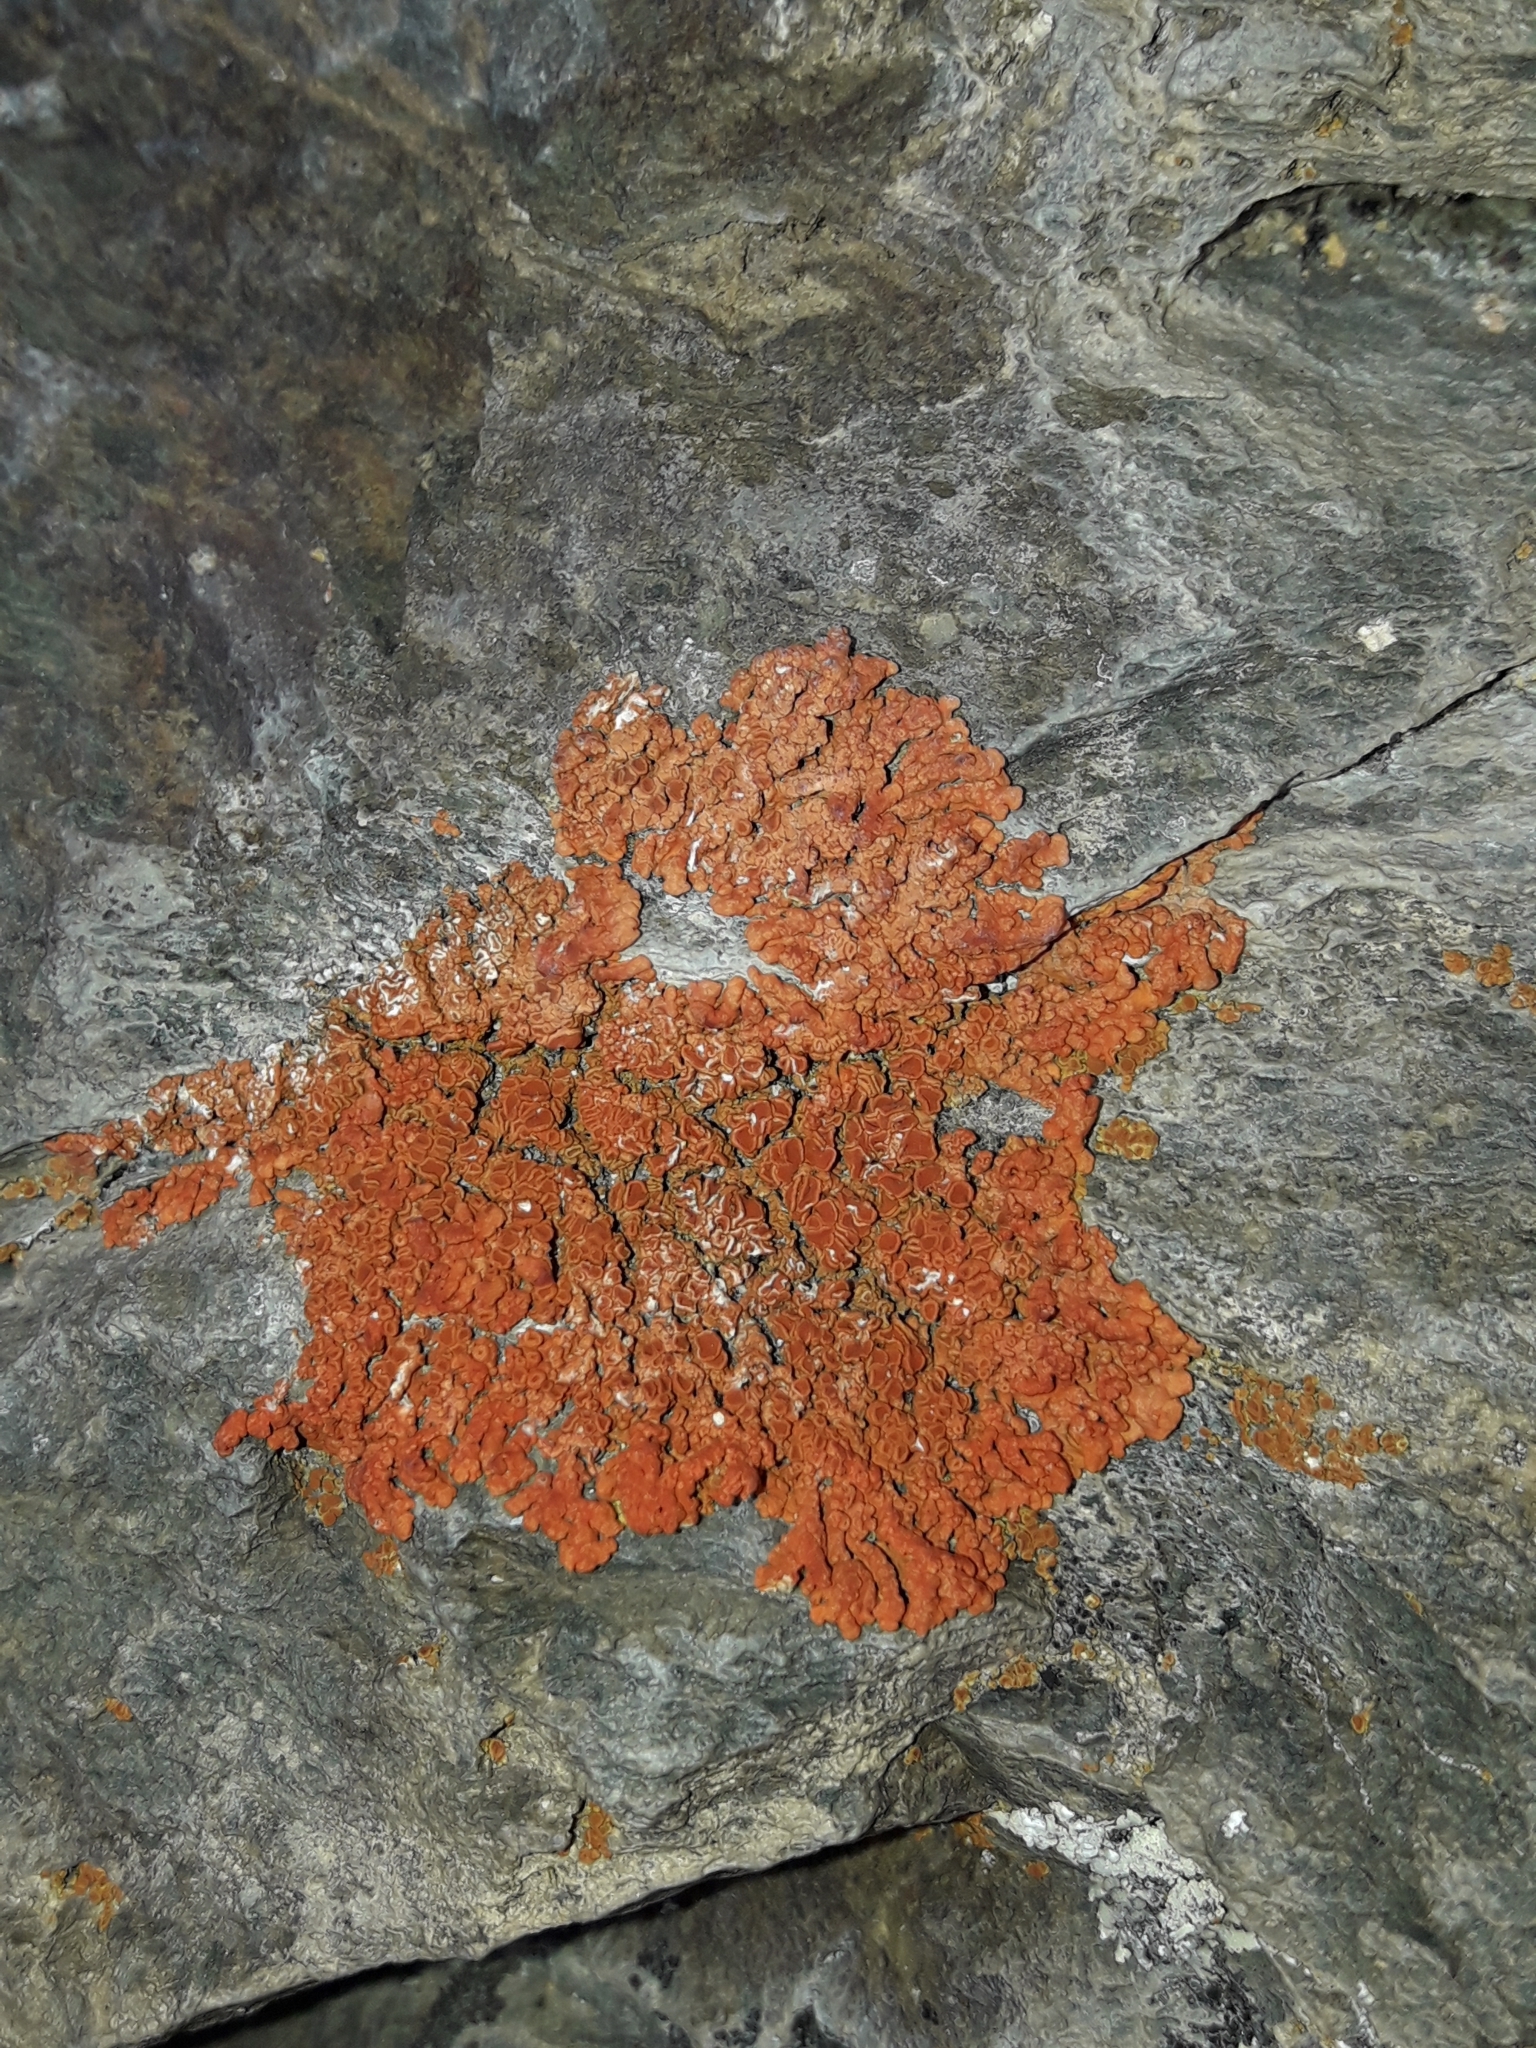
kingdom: Fungi
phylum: Ascomycota
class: Lecanoromycetes
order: Teloschistales
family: Teloschistaceae
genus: Xanthoria
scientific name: Xanthoria elegans
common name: Elegant sunburst lichen
